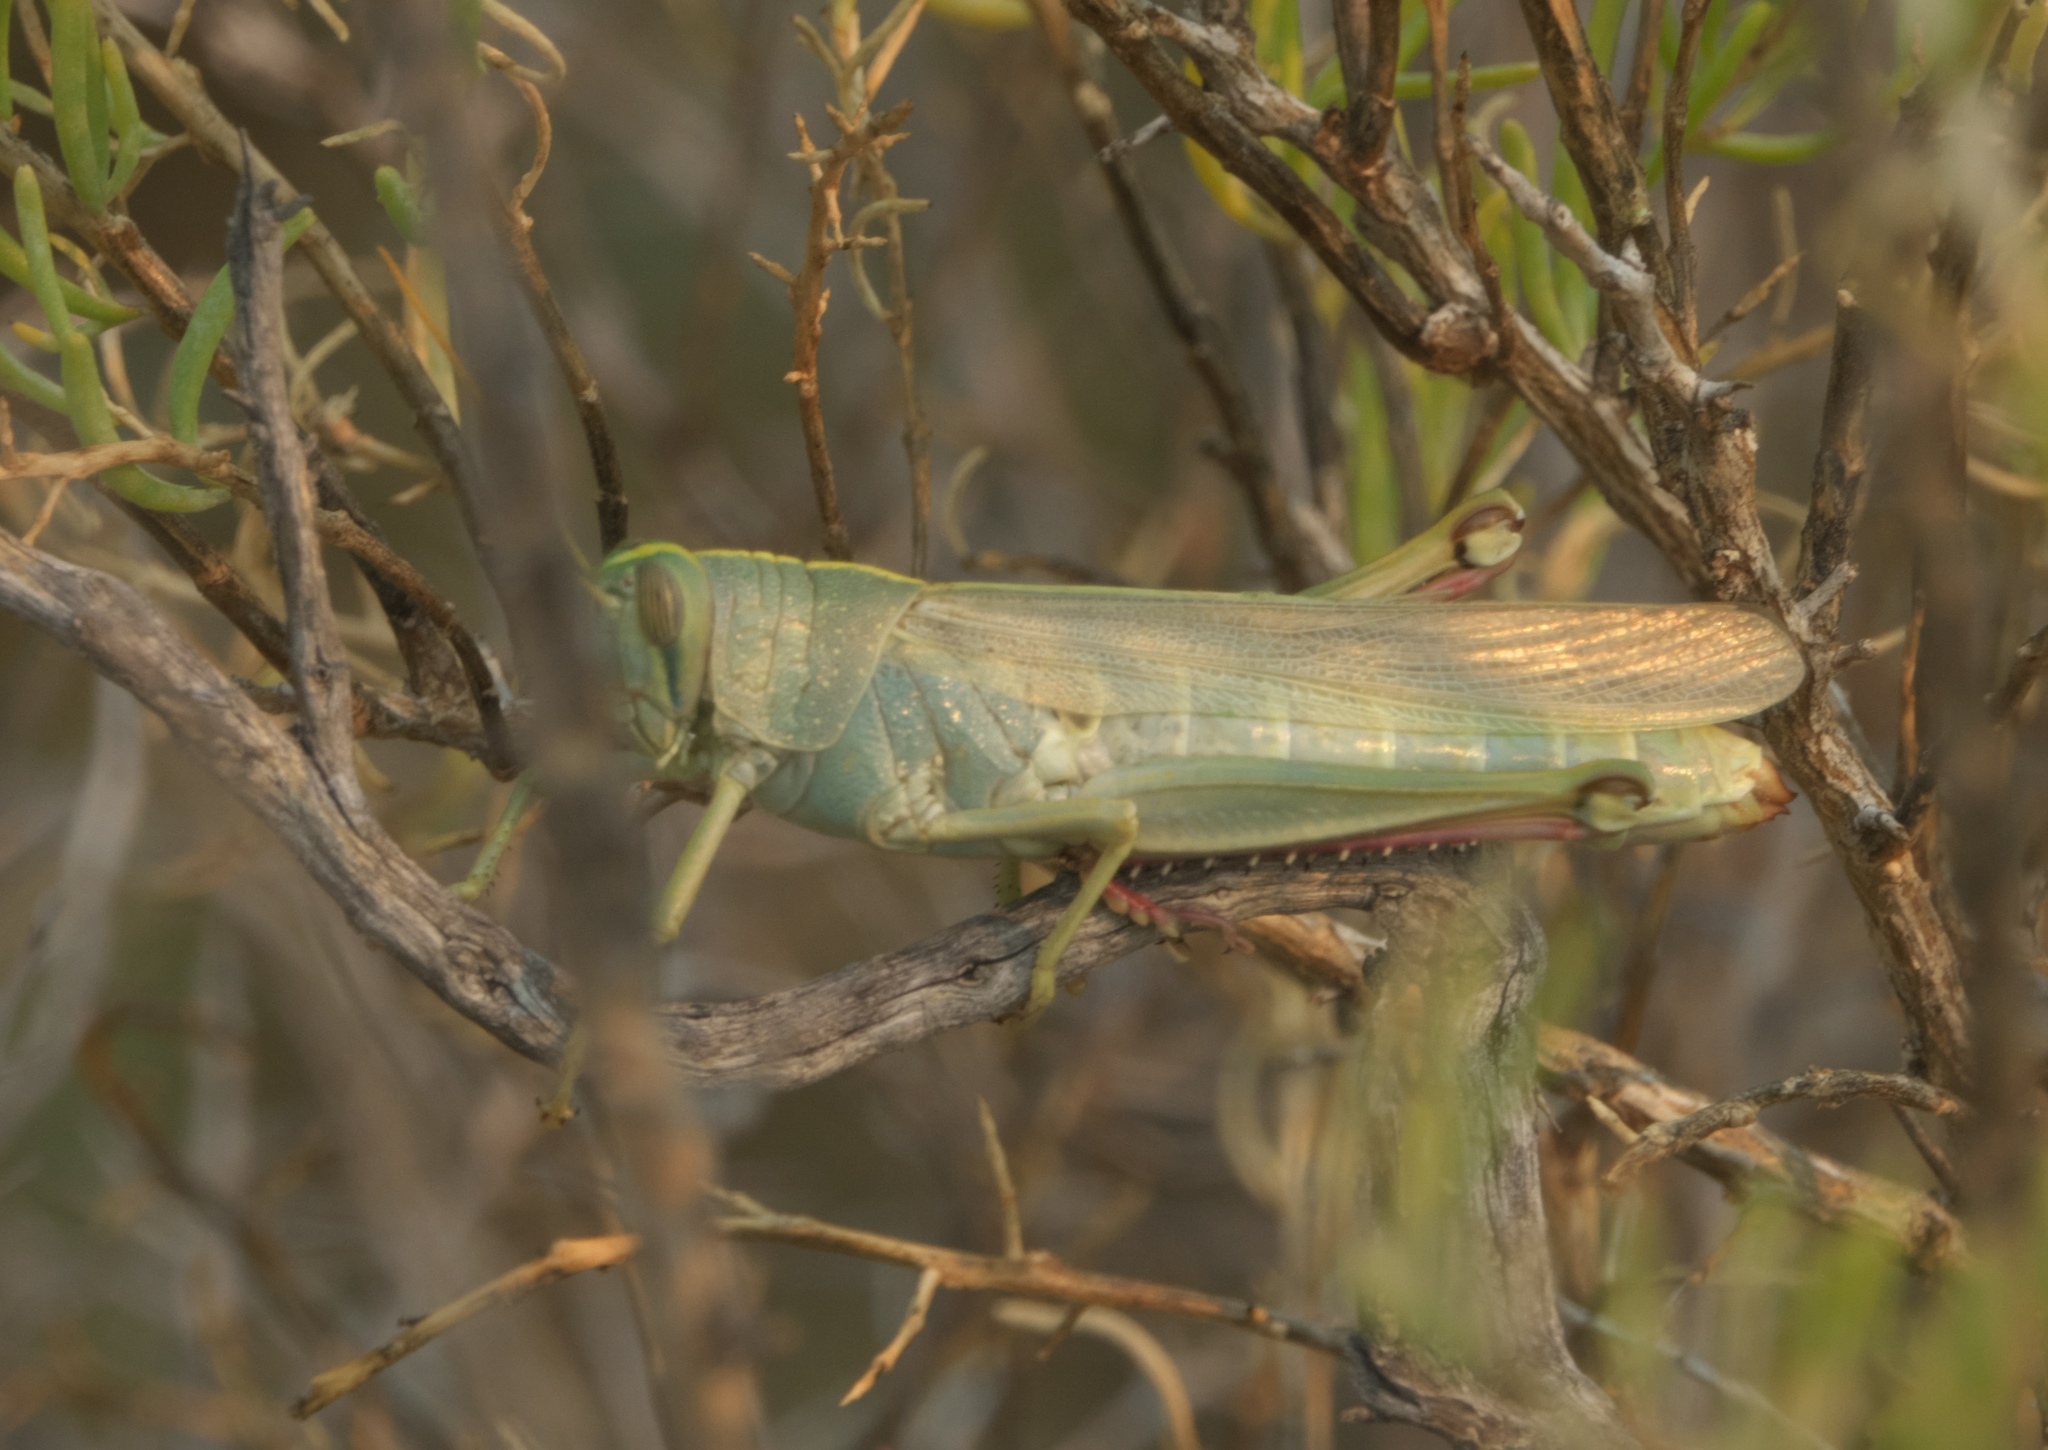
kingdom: Animalia
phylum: Arthropoda
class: Insecta
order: Orthoptera
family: Acrididae
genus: Schistocerca
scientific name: Schistocerca lineata
